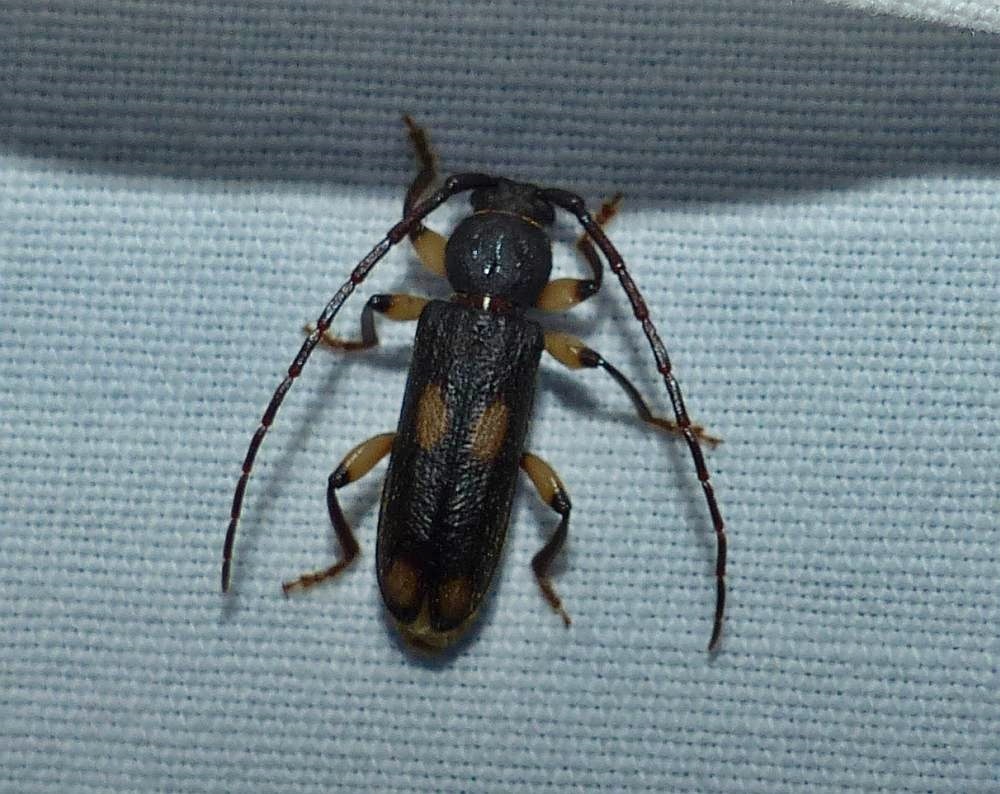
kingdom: Animalia
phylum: Arthropoda
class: Insecta
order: Coleoptera
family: Cerambycidae
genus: Tylonotus
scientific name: Tylonotus bimaculatus
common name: Ash and privet borer
